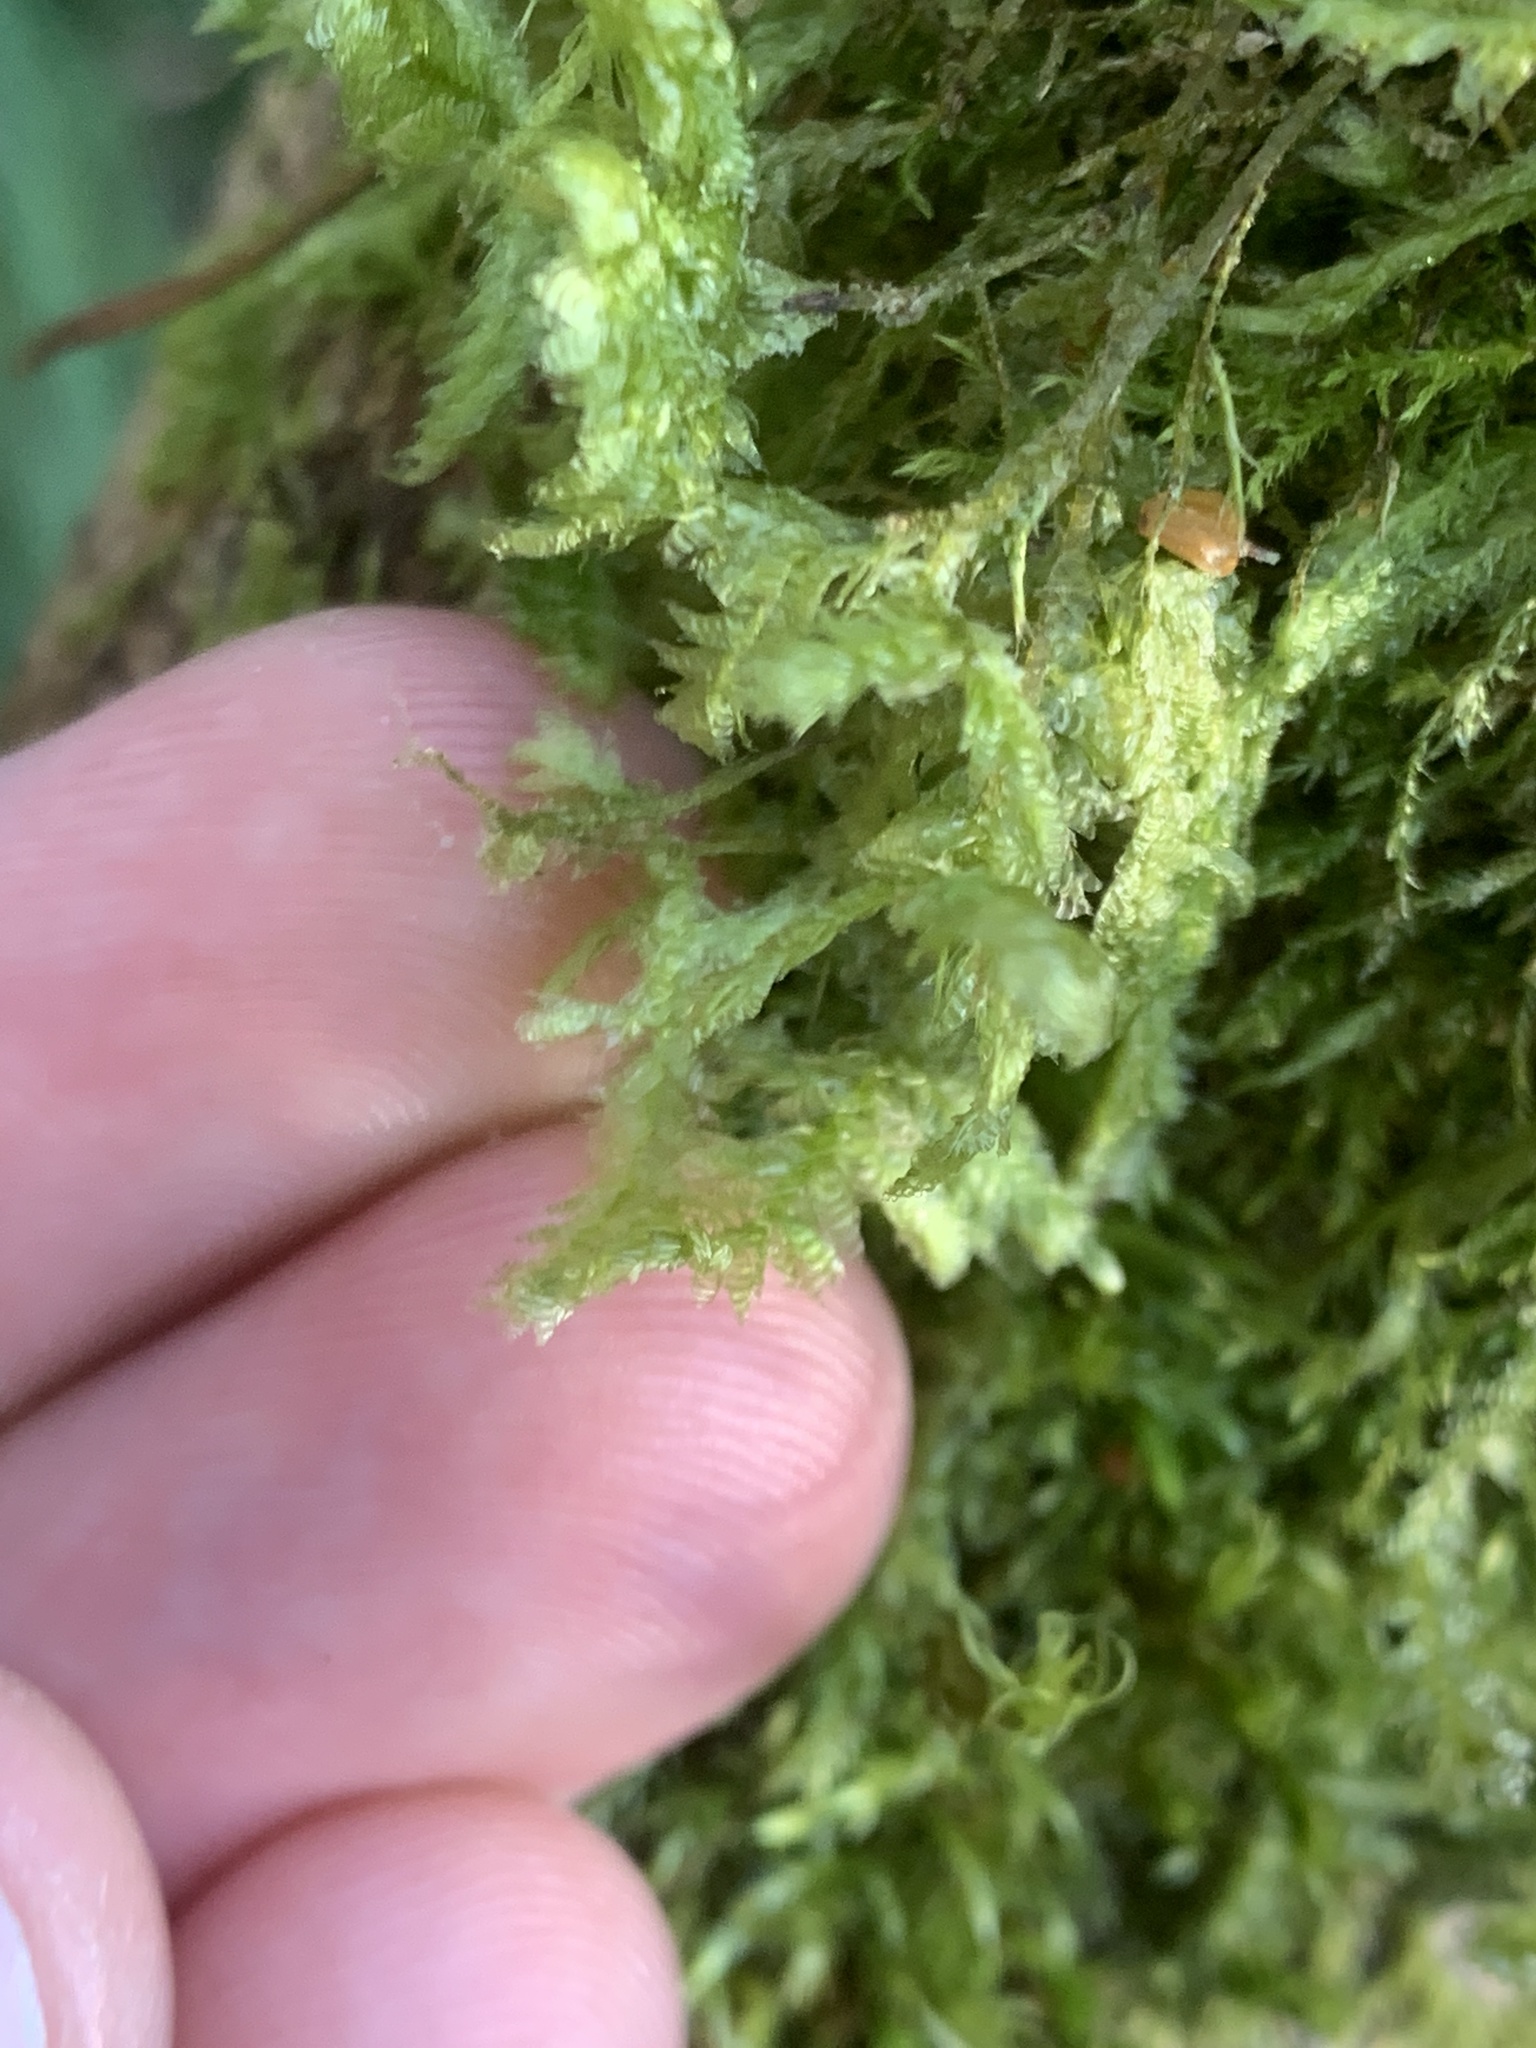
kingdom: Plantae
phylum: Bryophyta
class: Bryopsida
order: Hypnales
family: Neckeraceae
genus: Neckera
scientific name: Neckera douglasii
